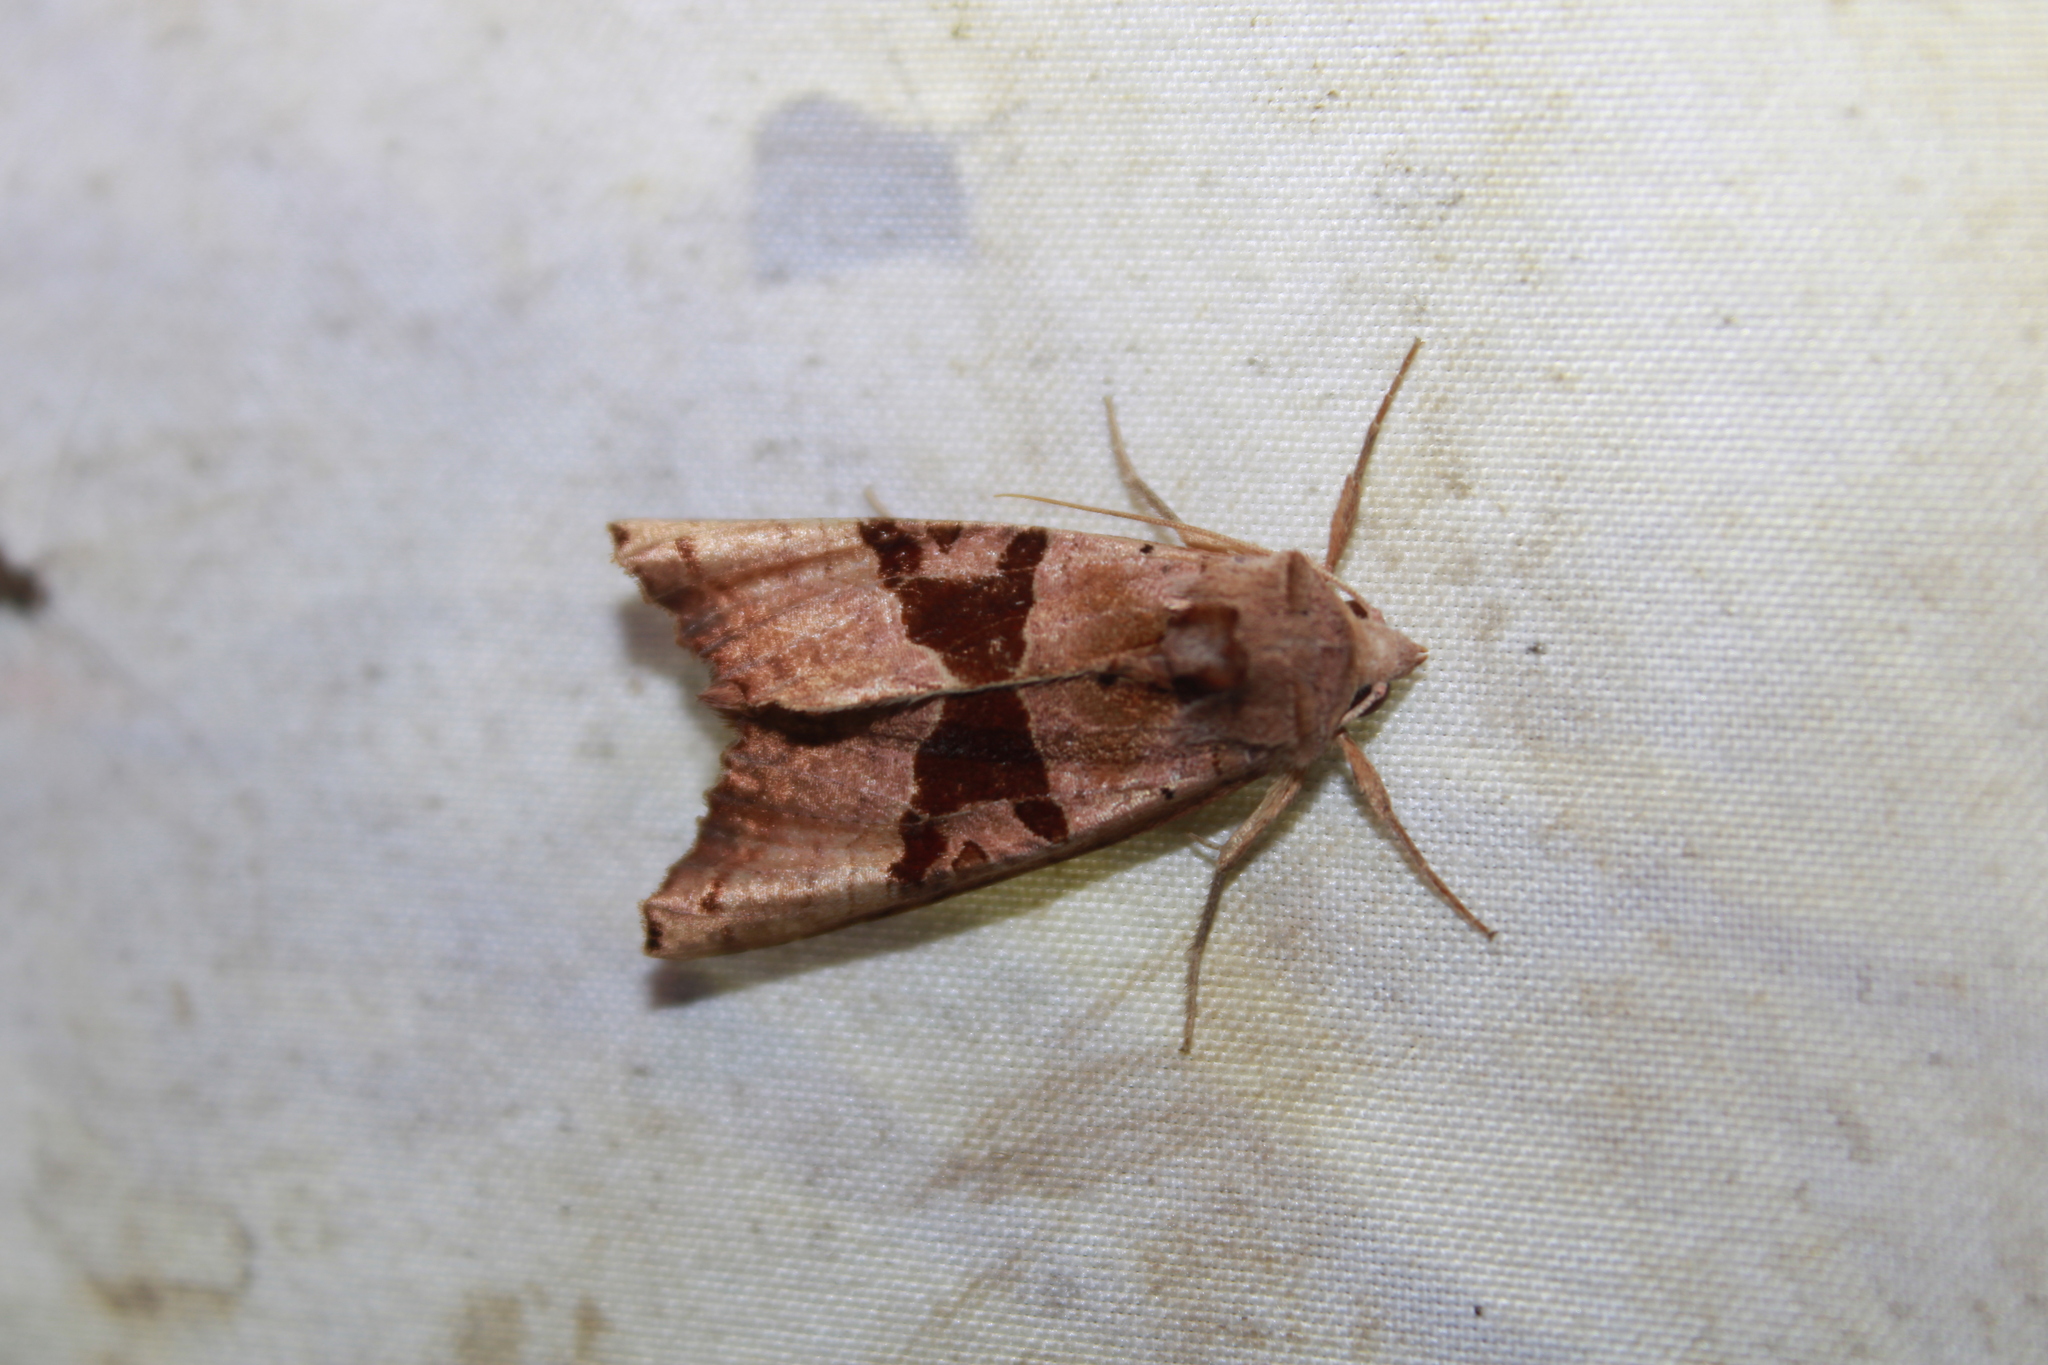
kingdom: Animalia
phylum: Arthropoda
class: Insecta
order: Lepidoptera
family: Noctuidae
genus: Phlogophora
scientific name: Phlogophora periculosa
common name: Brown angle shades
